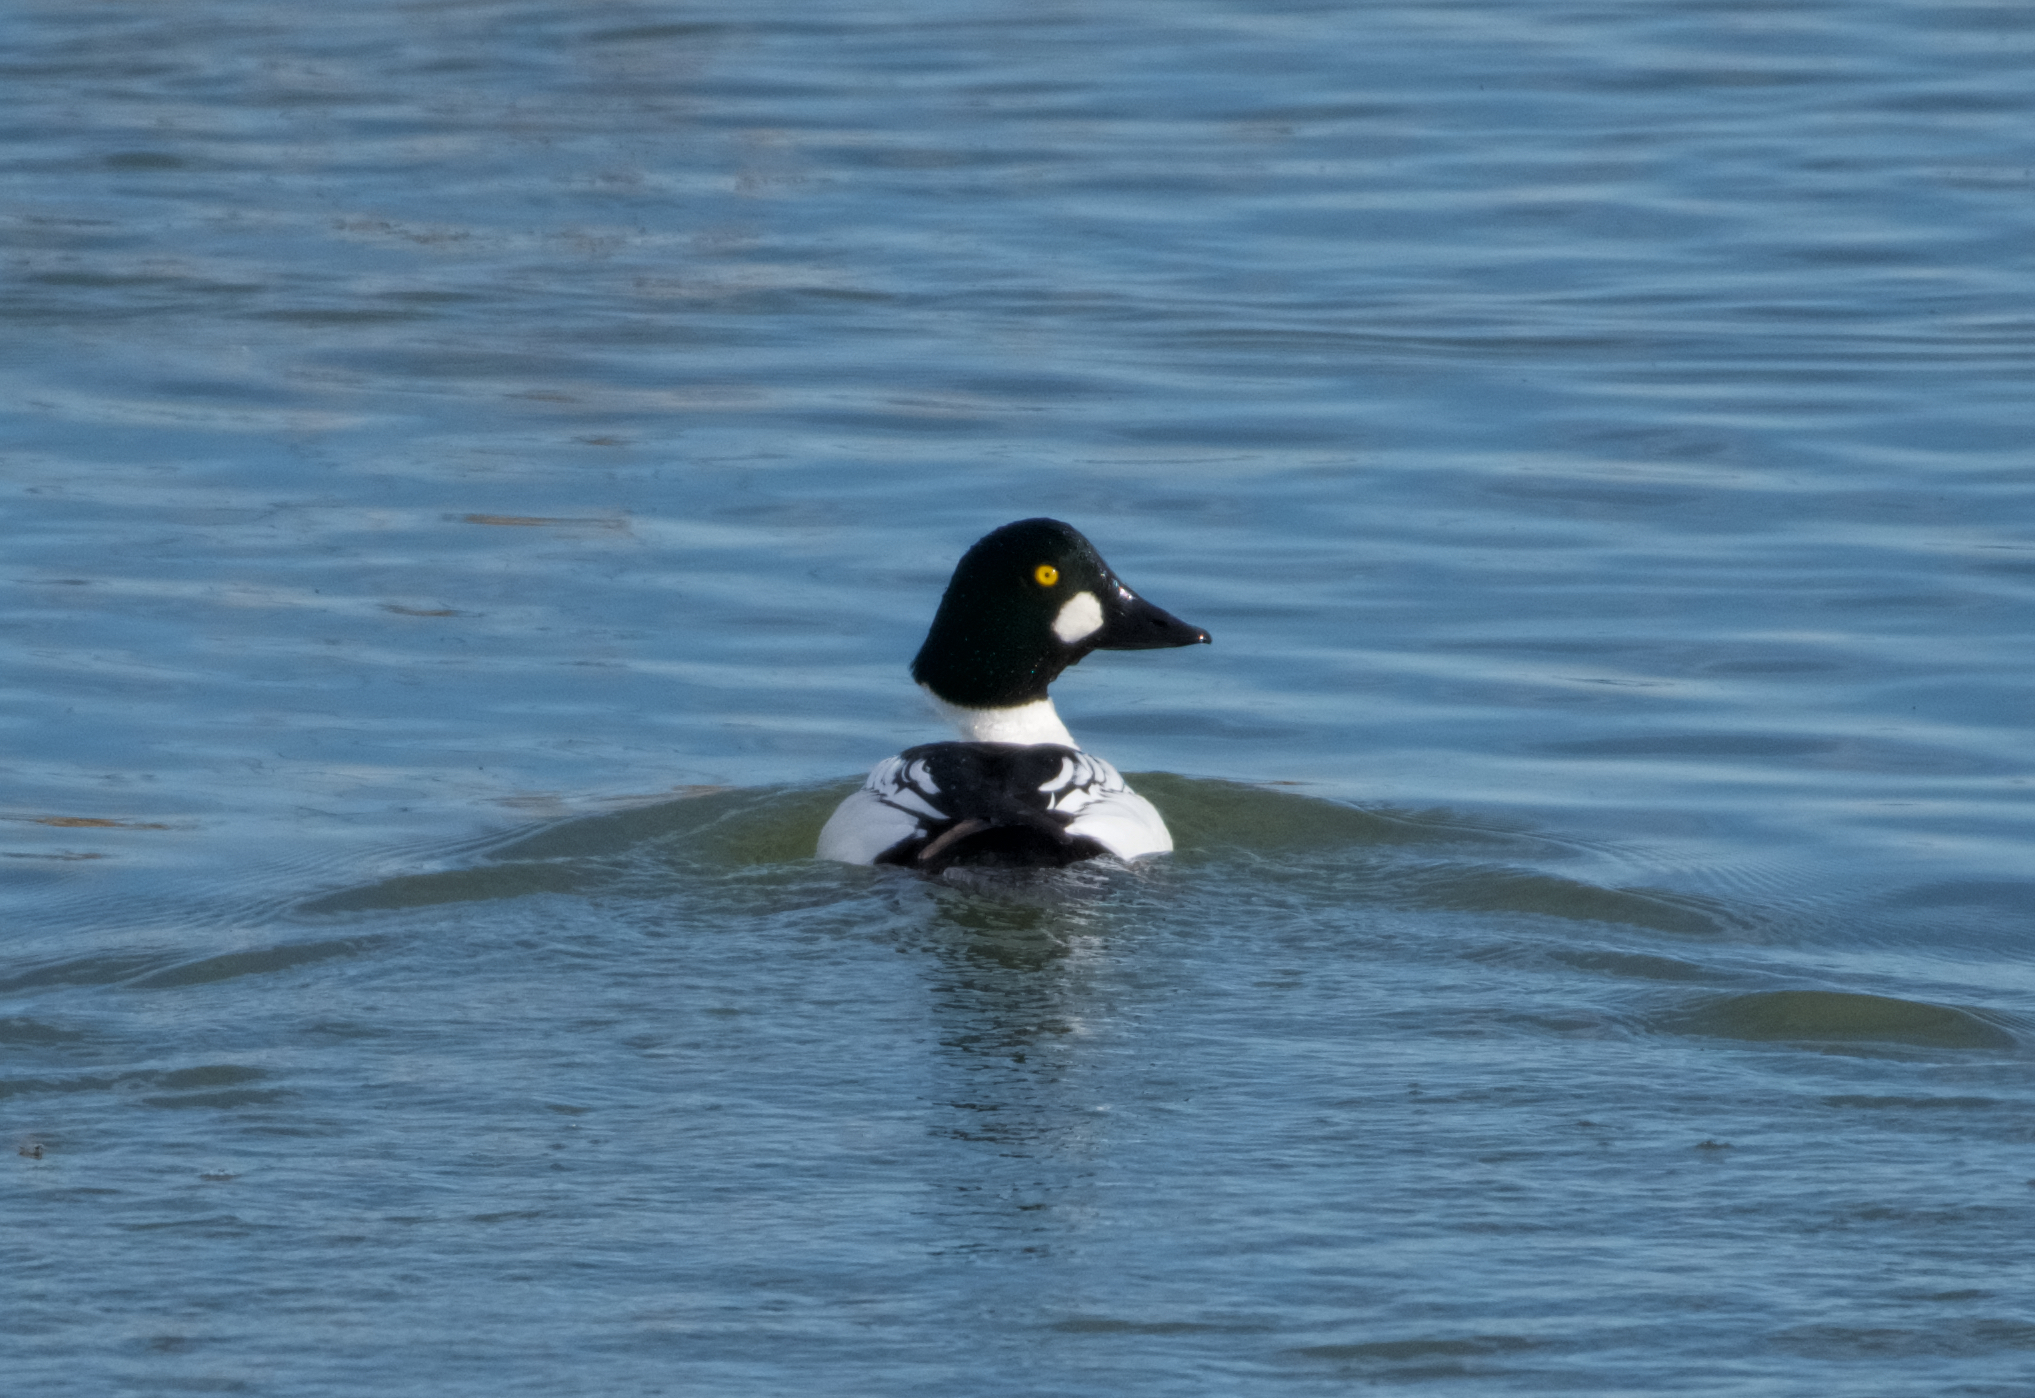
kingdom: Animalia
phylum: Chordata
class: Aves
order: Anseriformes
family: Anatidae
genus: Bucephala
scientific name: Bucephala clangula
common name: Common goldeneye
